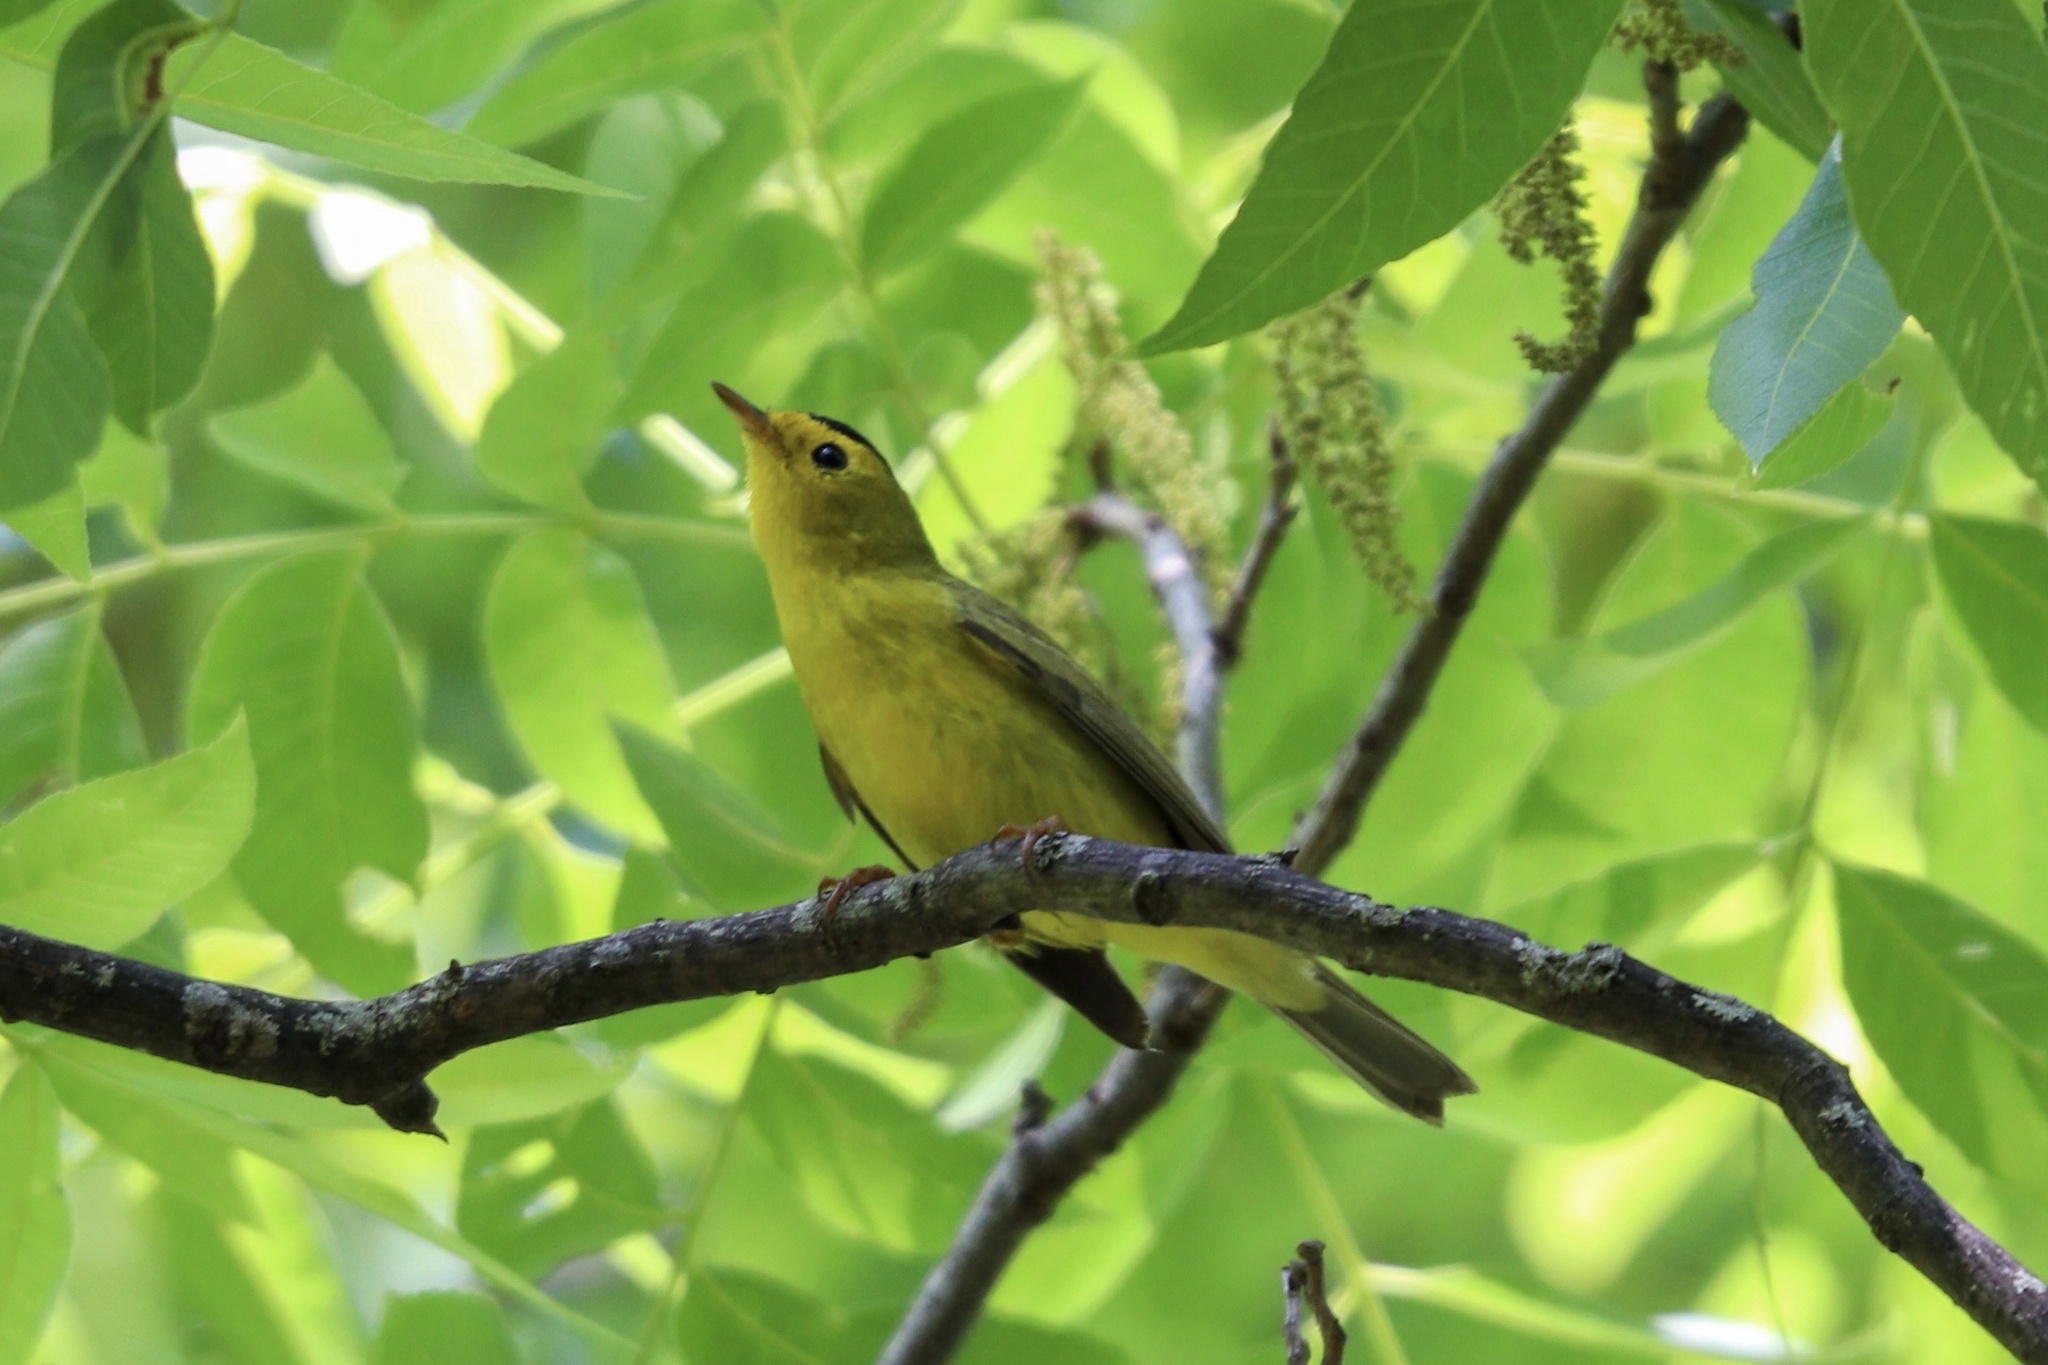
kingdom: Animalia
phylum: Chordata
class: Aves
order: Passeriformes
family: Parulidae
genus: Cardellina
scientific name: Cardellina pusilla
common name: Wilson's warbler
